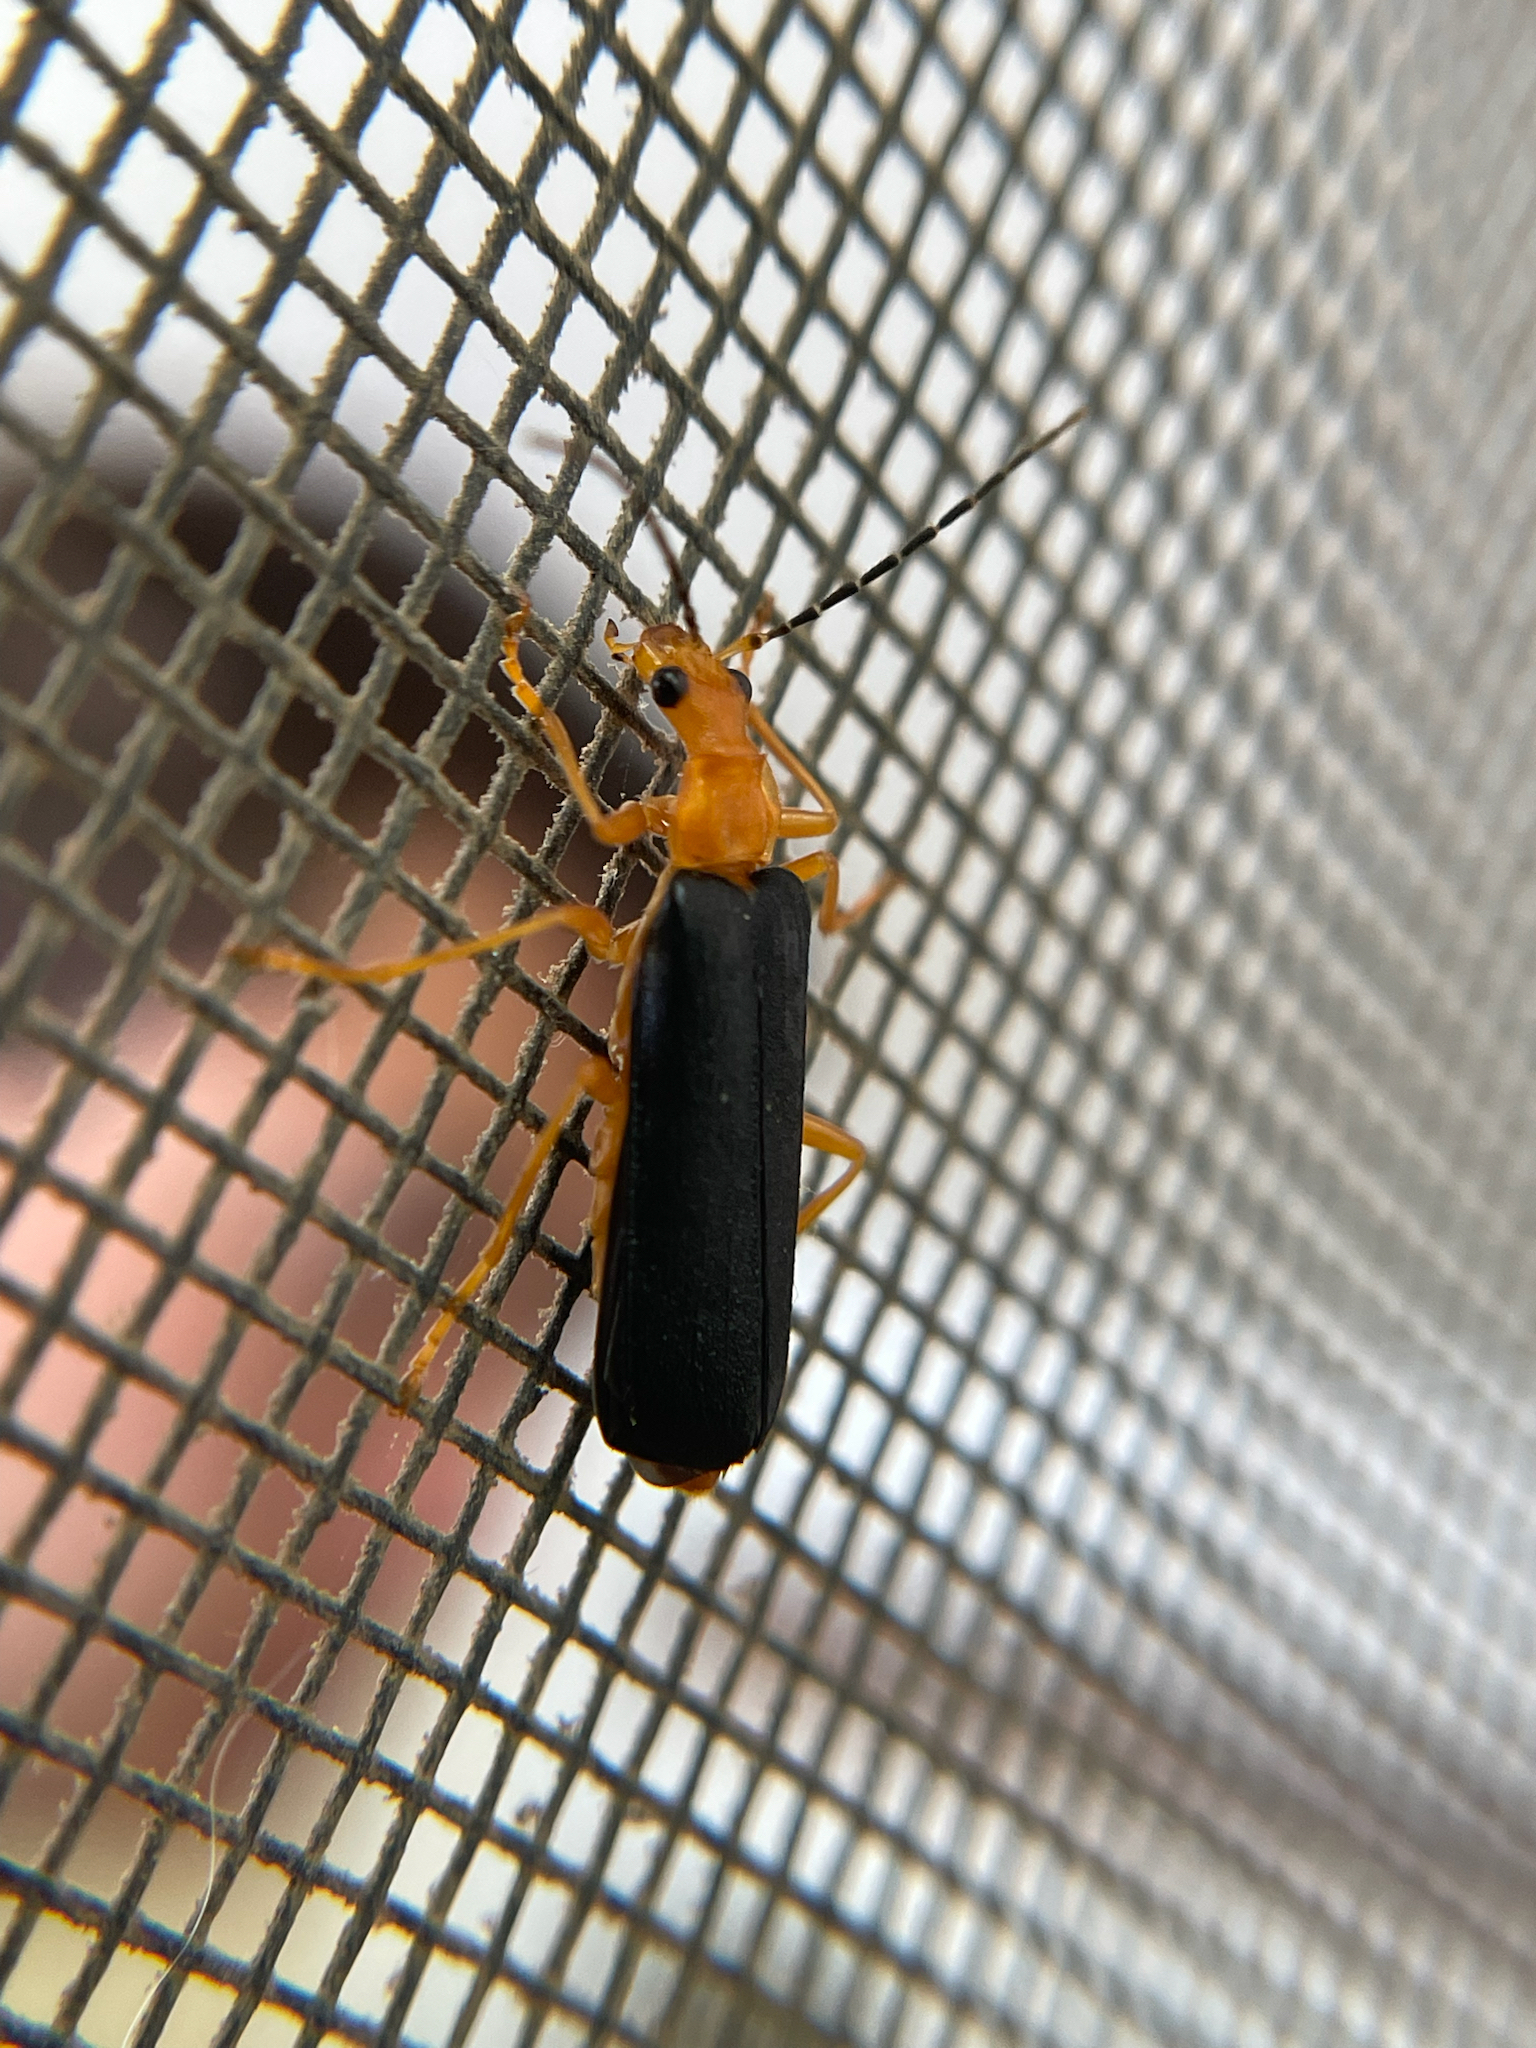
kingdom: Animalia
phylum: Arthropoda
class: Insecta
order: Coleoptera
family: Cantharidae
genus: Podabrus
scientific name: Podabrus fayi
